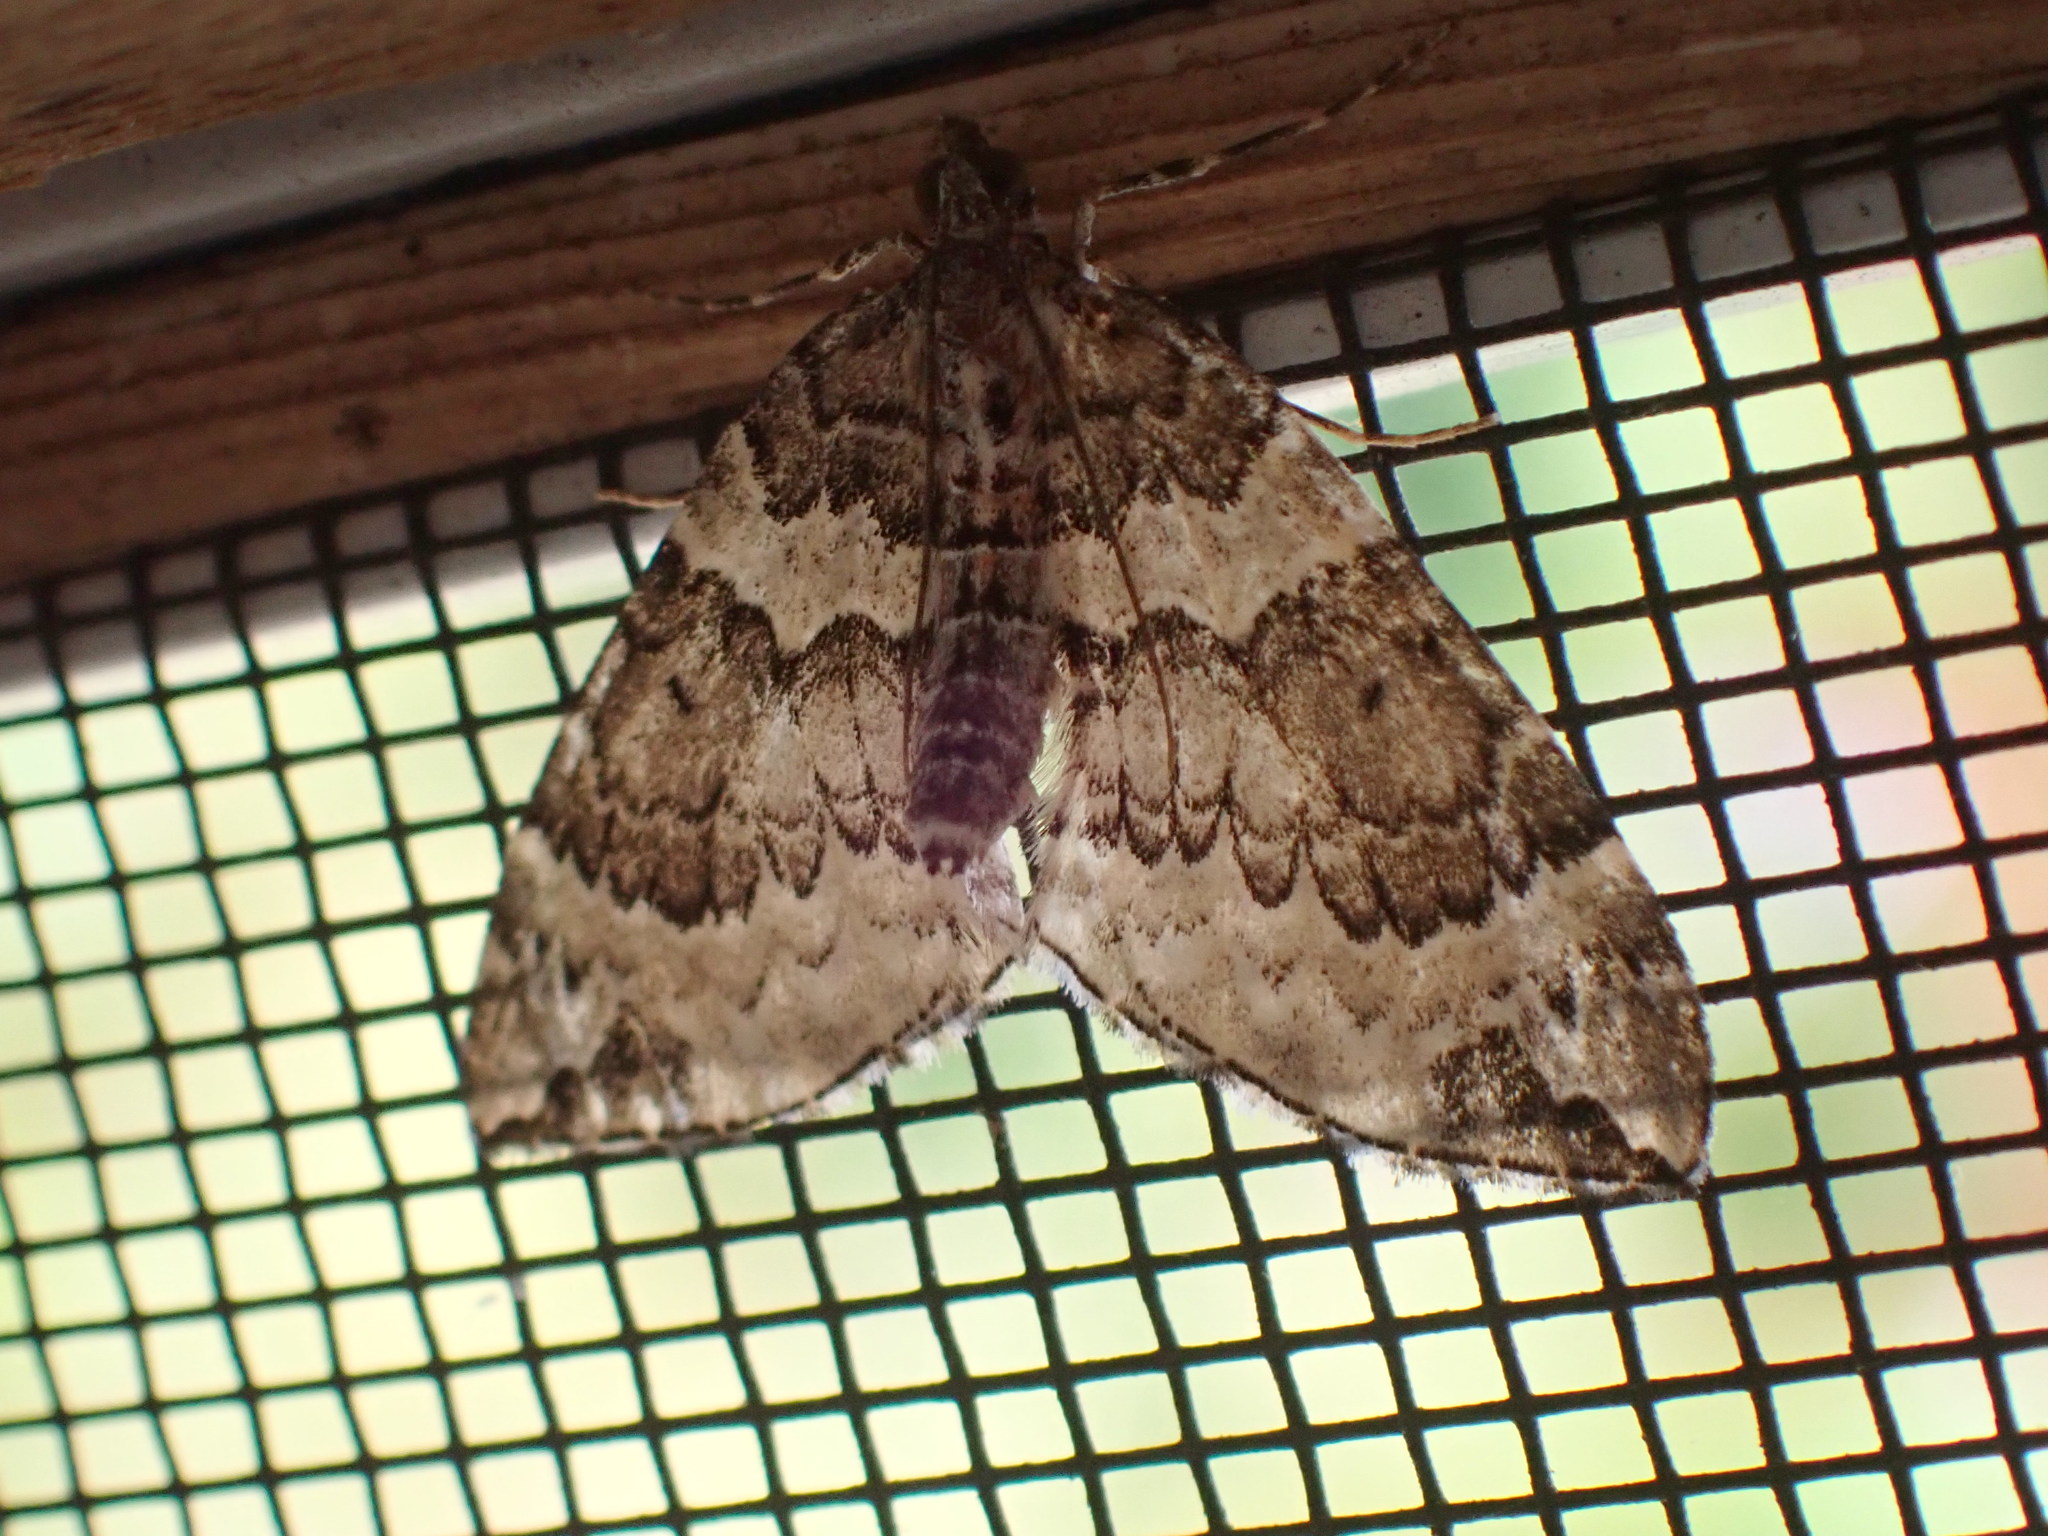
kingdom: Animalia
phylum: Arthropoda
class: Insecta
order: Lepidoptera
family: Geometridae
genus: Eulithis
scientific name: Eulithis explanata
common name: White eulithis
